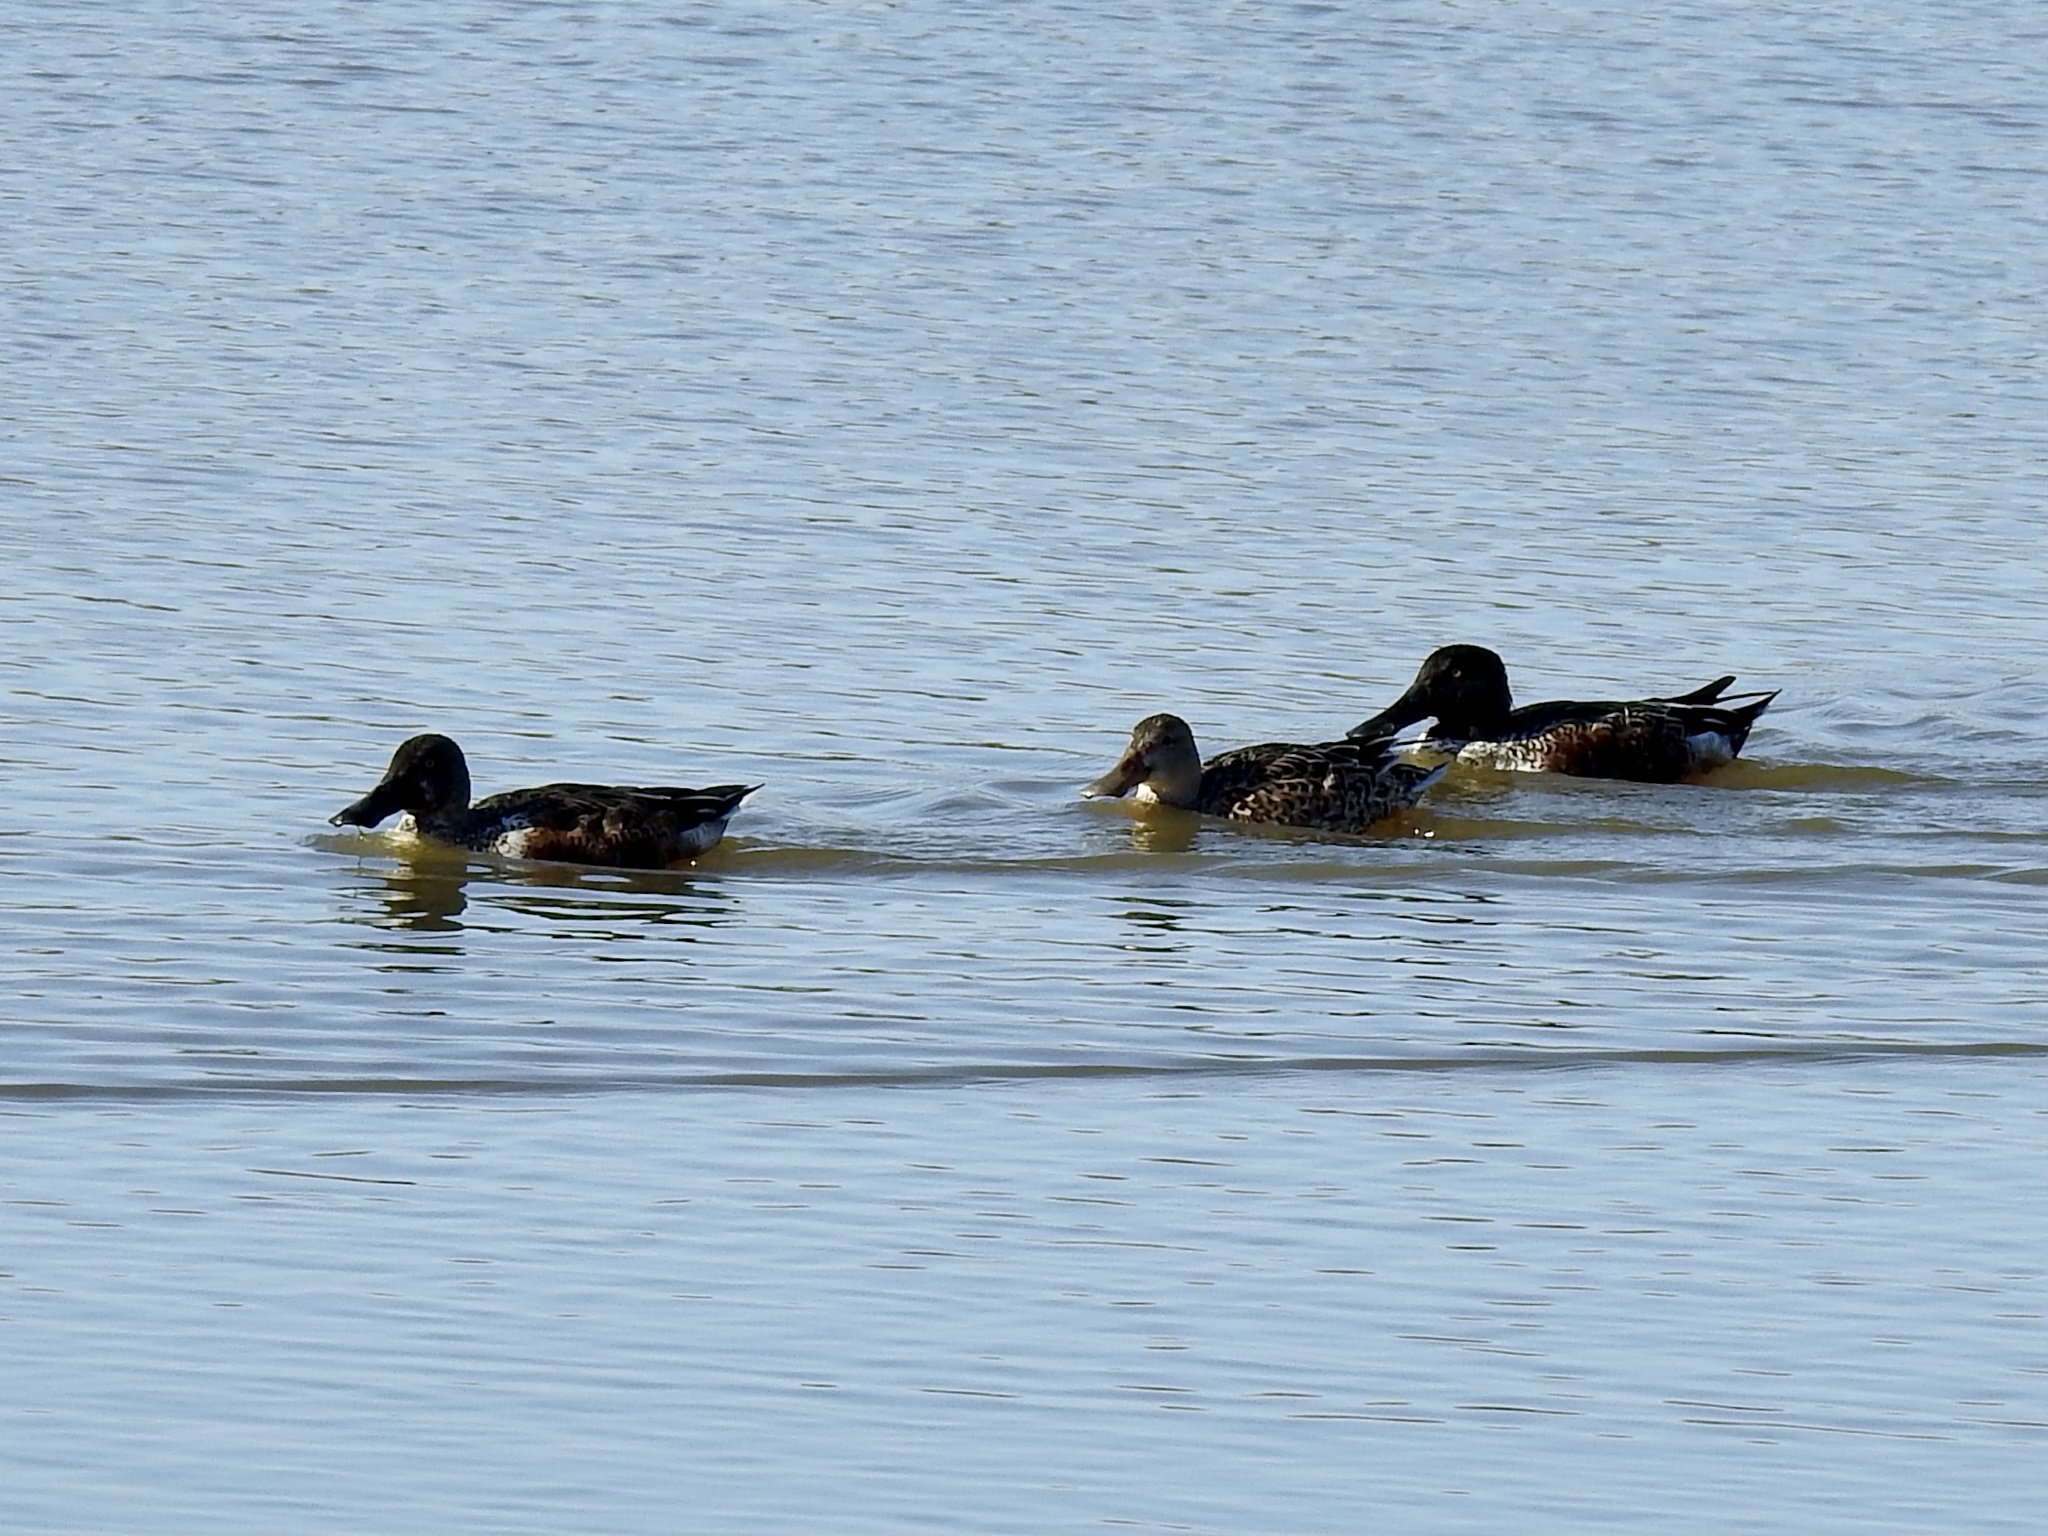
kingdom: Animalia
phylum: Chordata
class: Aves
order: Anseriformes
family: Anatidae
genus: Spatula
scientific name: Spatula clypeata
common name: Northern shoveler
